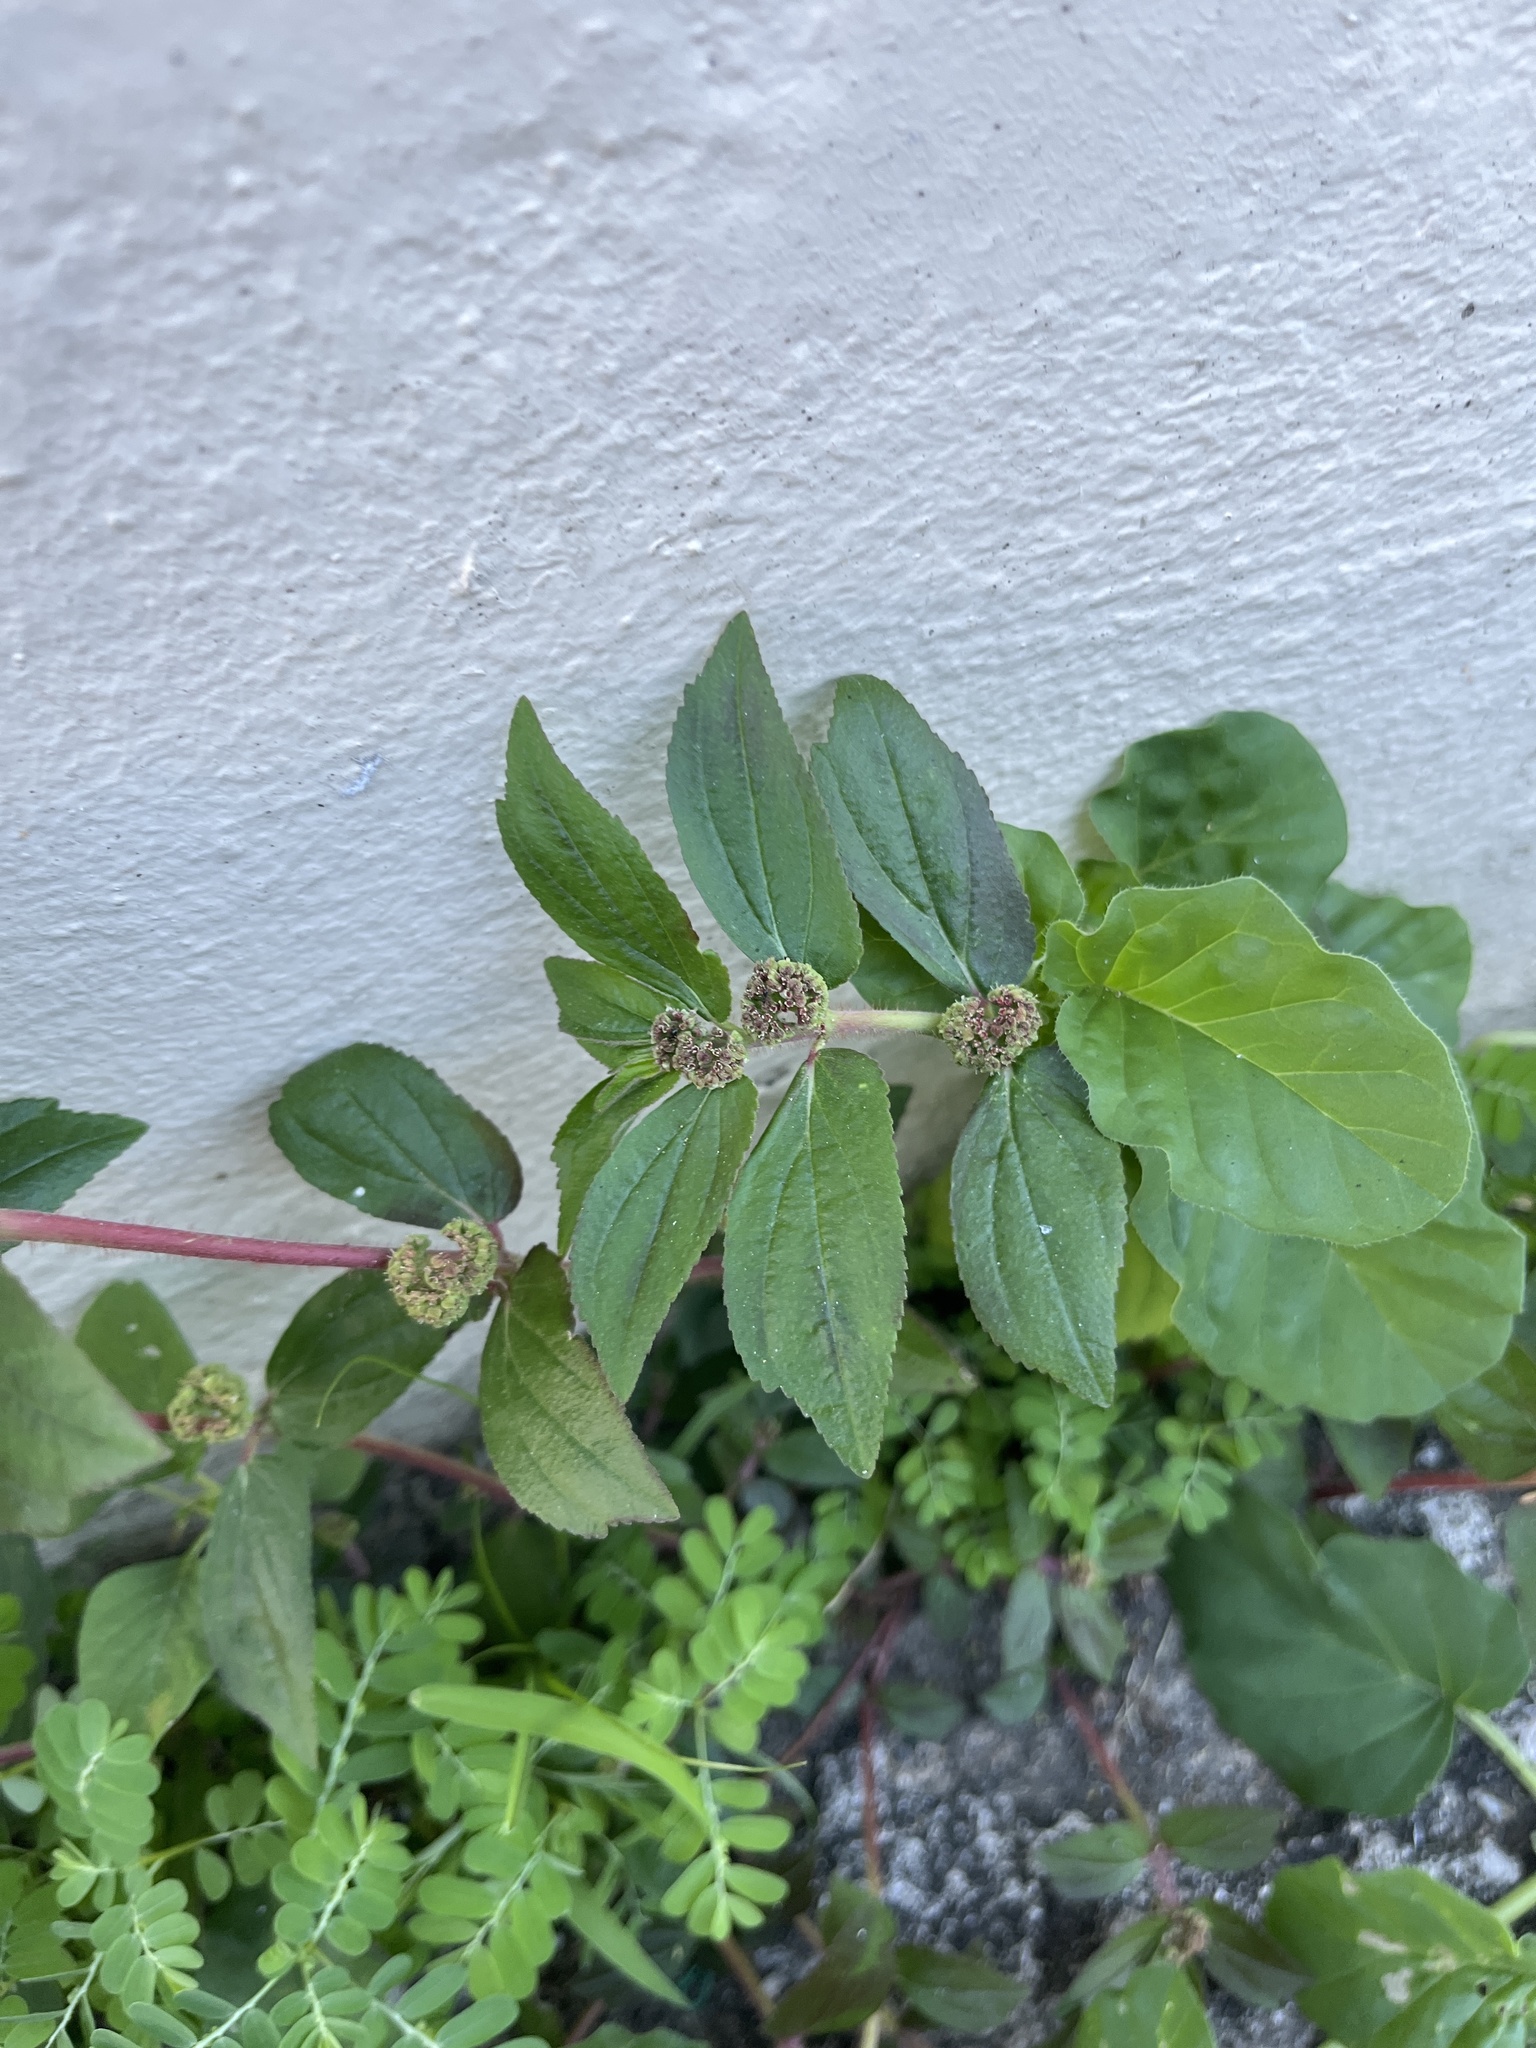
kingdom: Plantae
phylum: Tracheophyta
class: Magnoliopsida
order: Malpighiales
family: Euphorbiaceae
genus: Euphorbia
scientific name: Euphorbia hirta
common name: Pillpod sandmat
